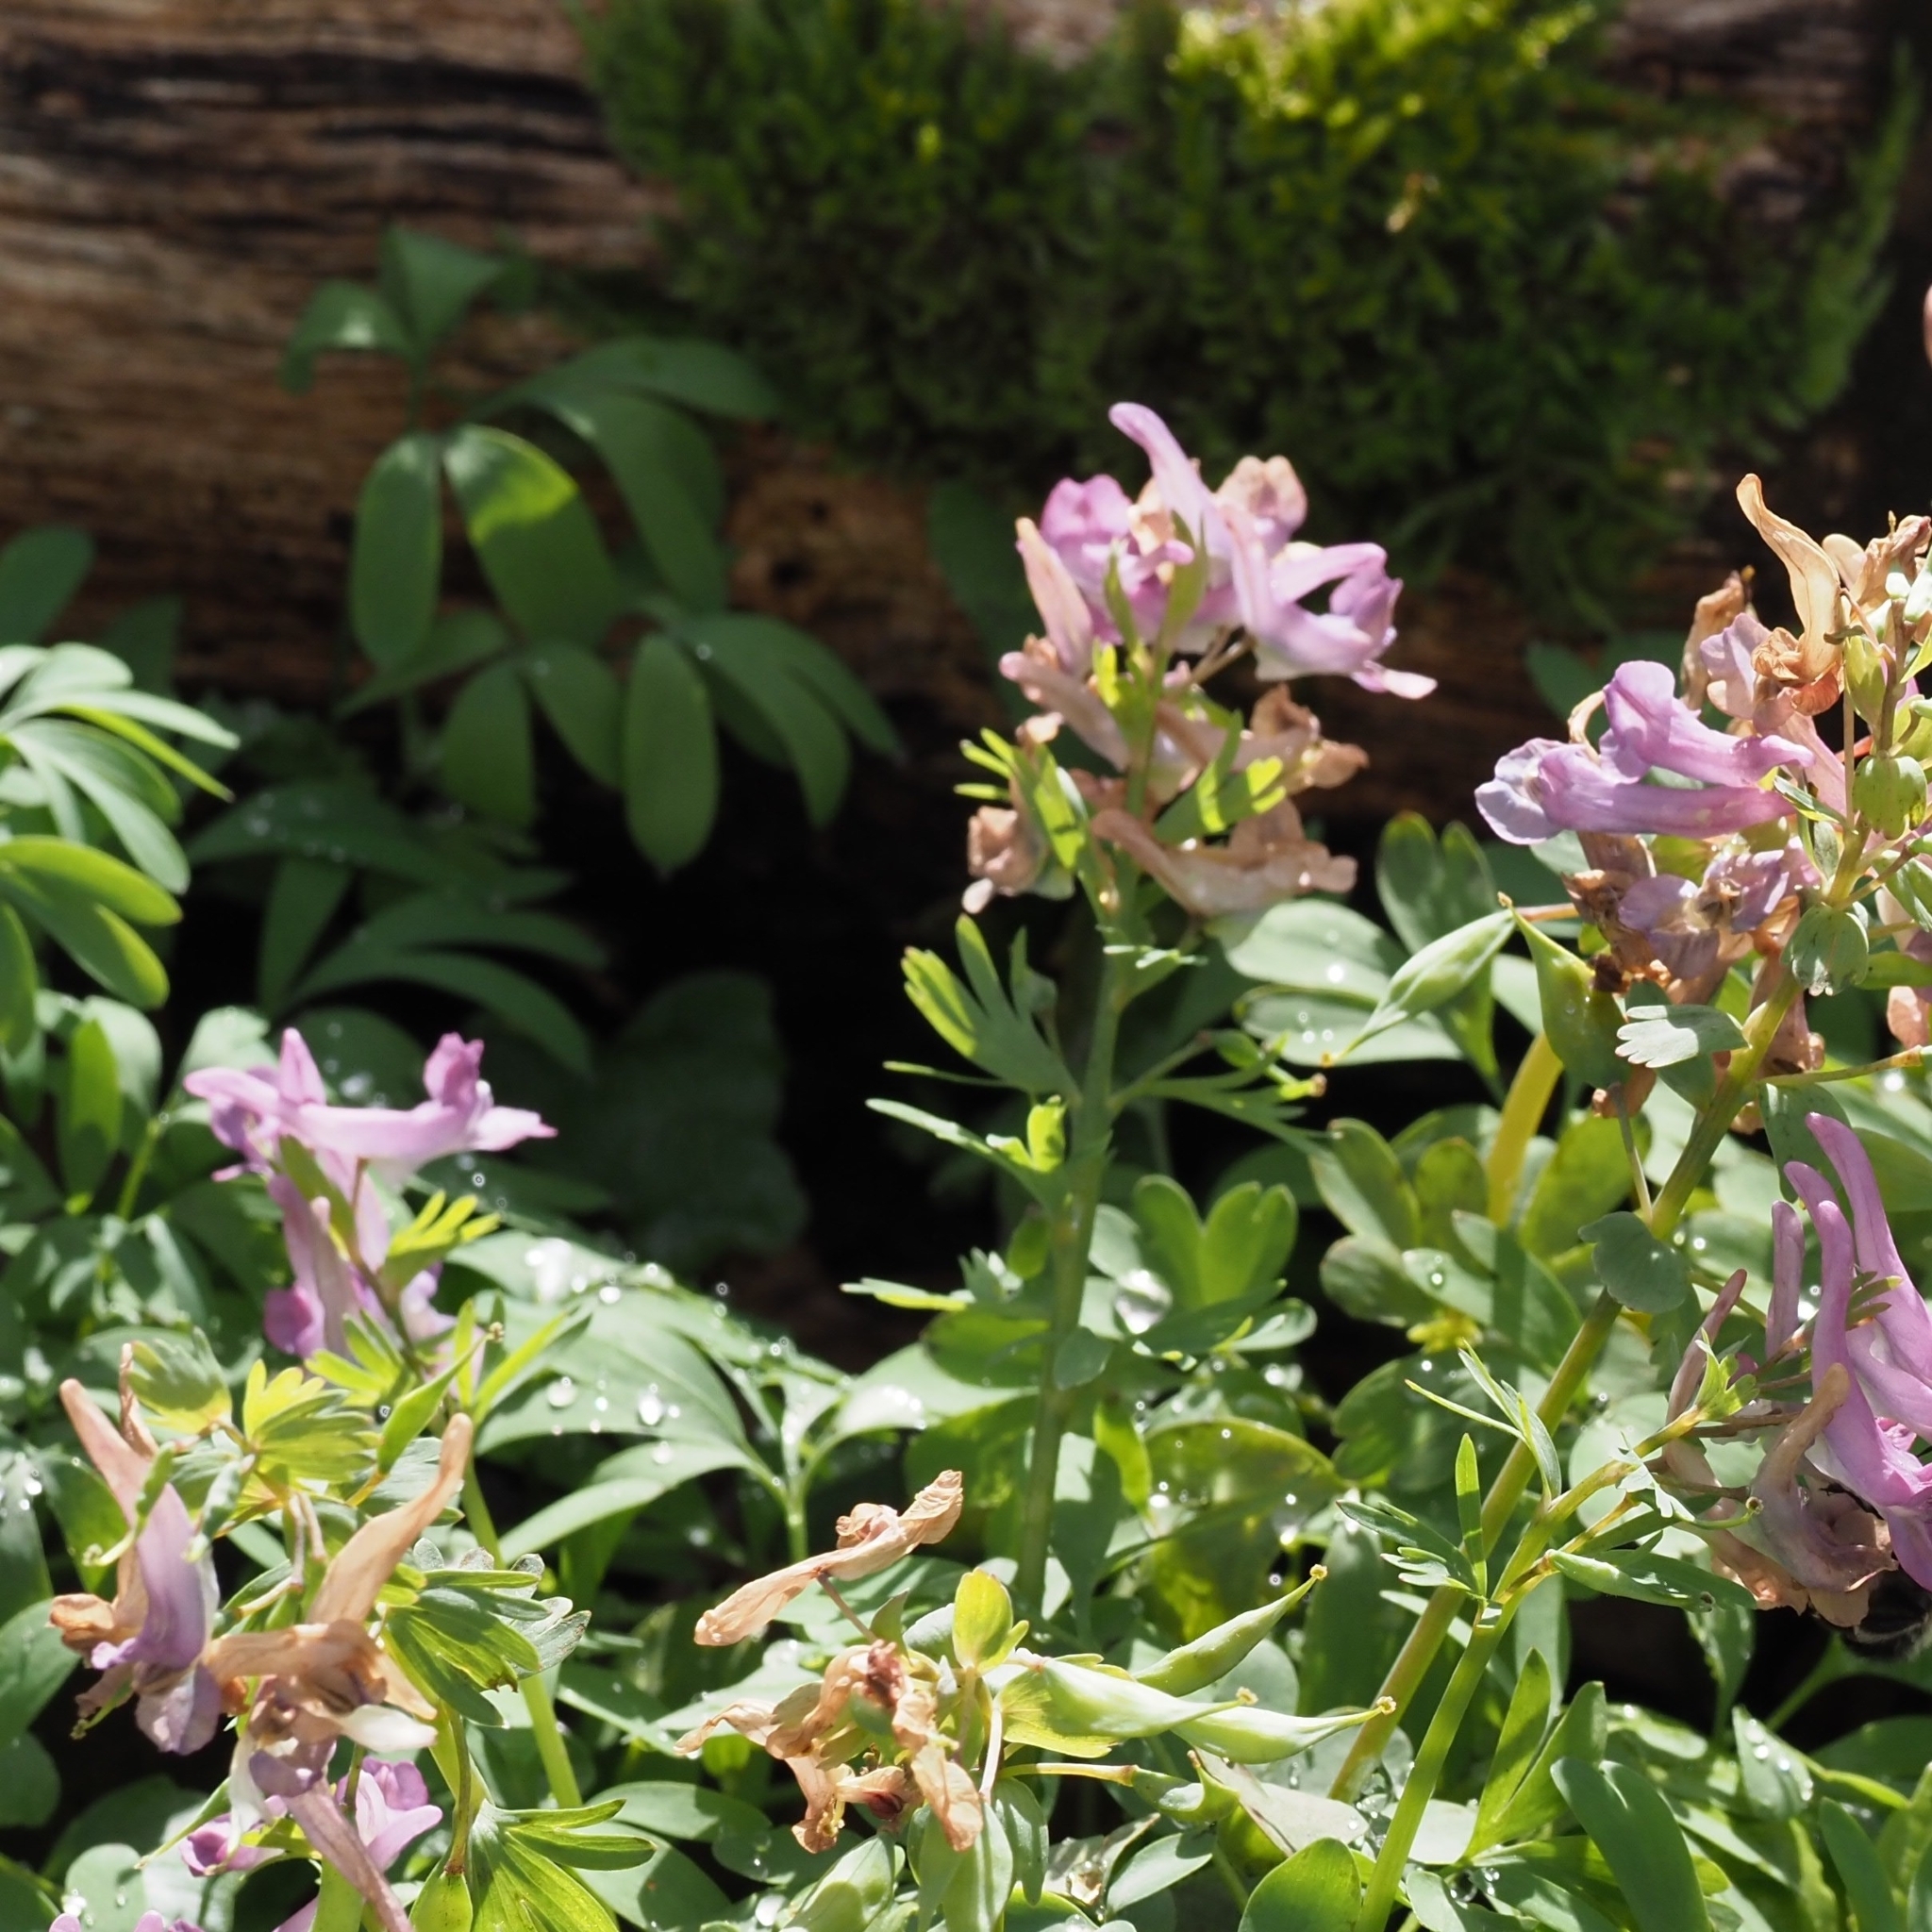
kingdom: Plantae
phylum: Tracheophyta
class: Magnoliopsida
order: Ranunculales
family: Papaveraceae
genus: Corydalis
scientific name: Corydalis solida
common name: Bird-in-a-bush
